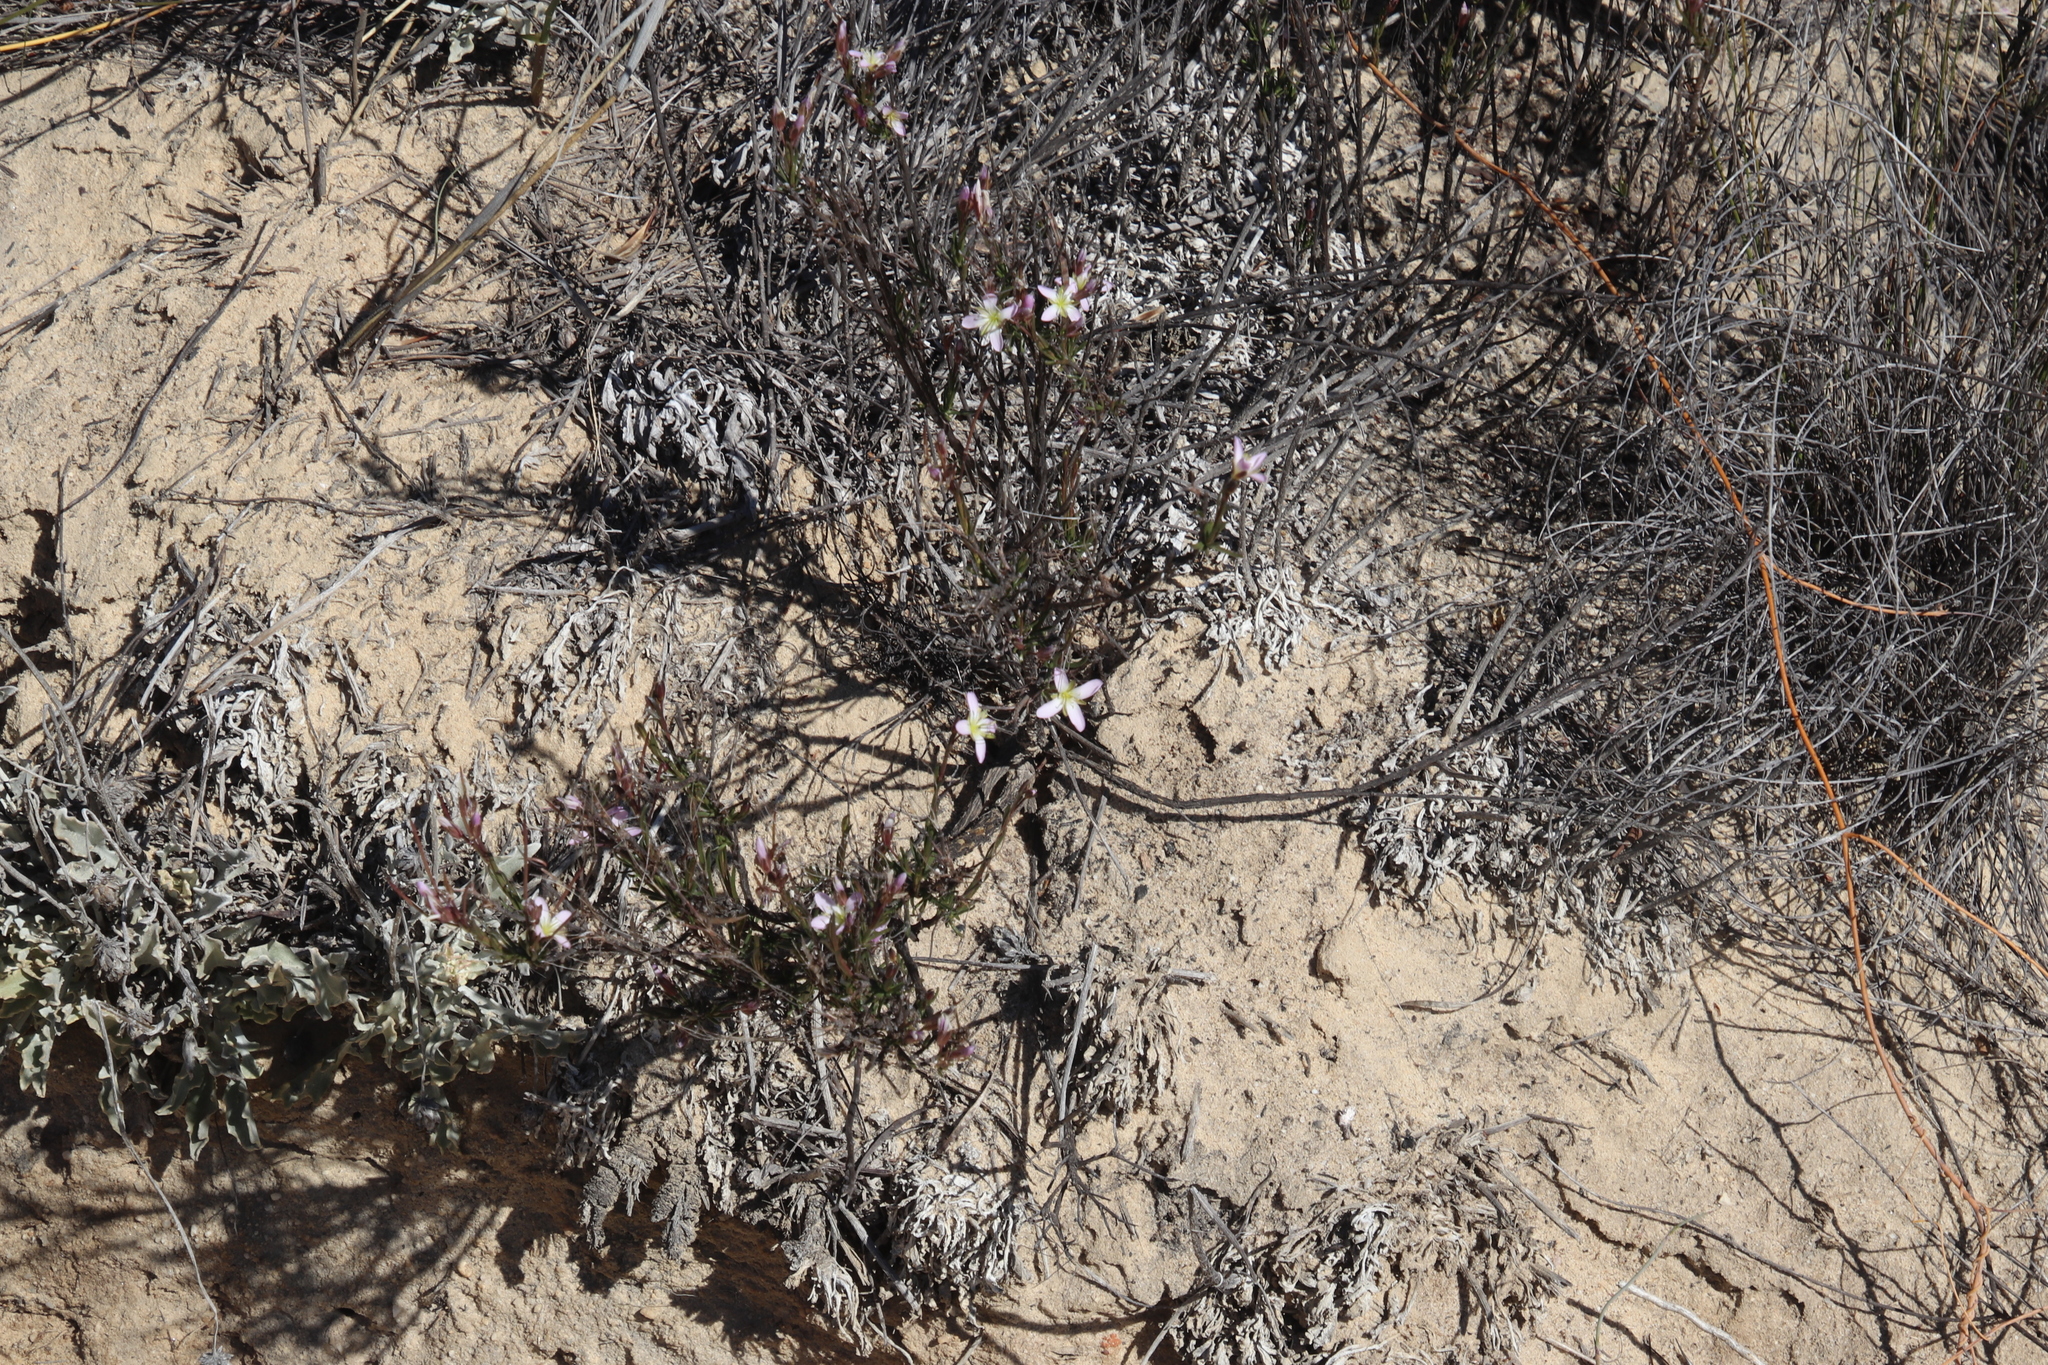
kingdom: Plantae
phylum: Tracheophyta
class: Magnoliopsida
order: Brassicales
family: Brassicaceae
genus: Heliophila
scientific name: Heliophila scoparia
